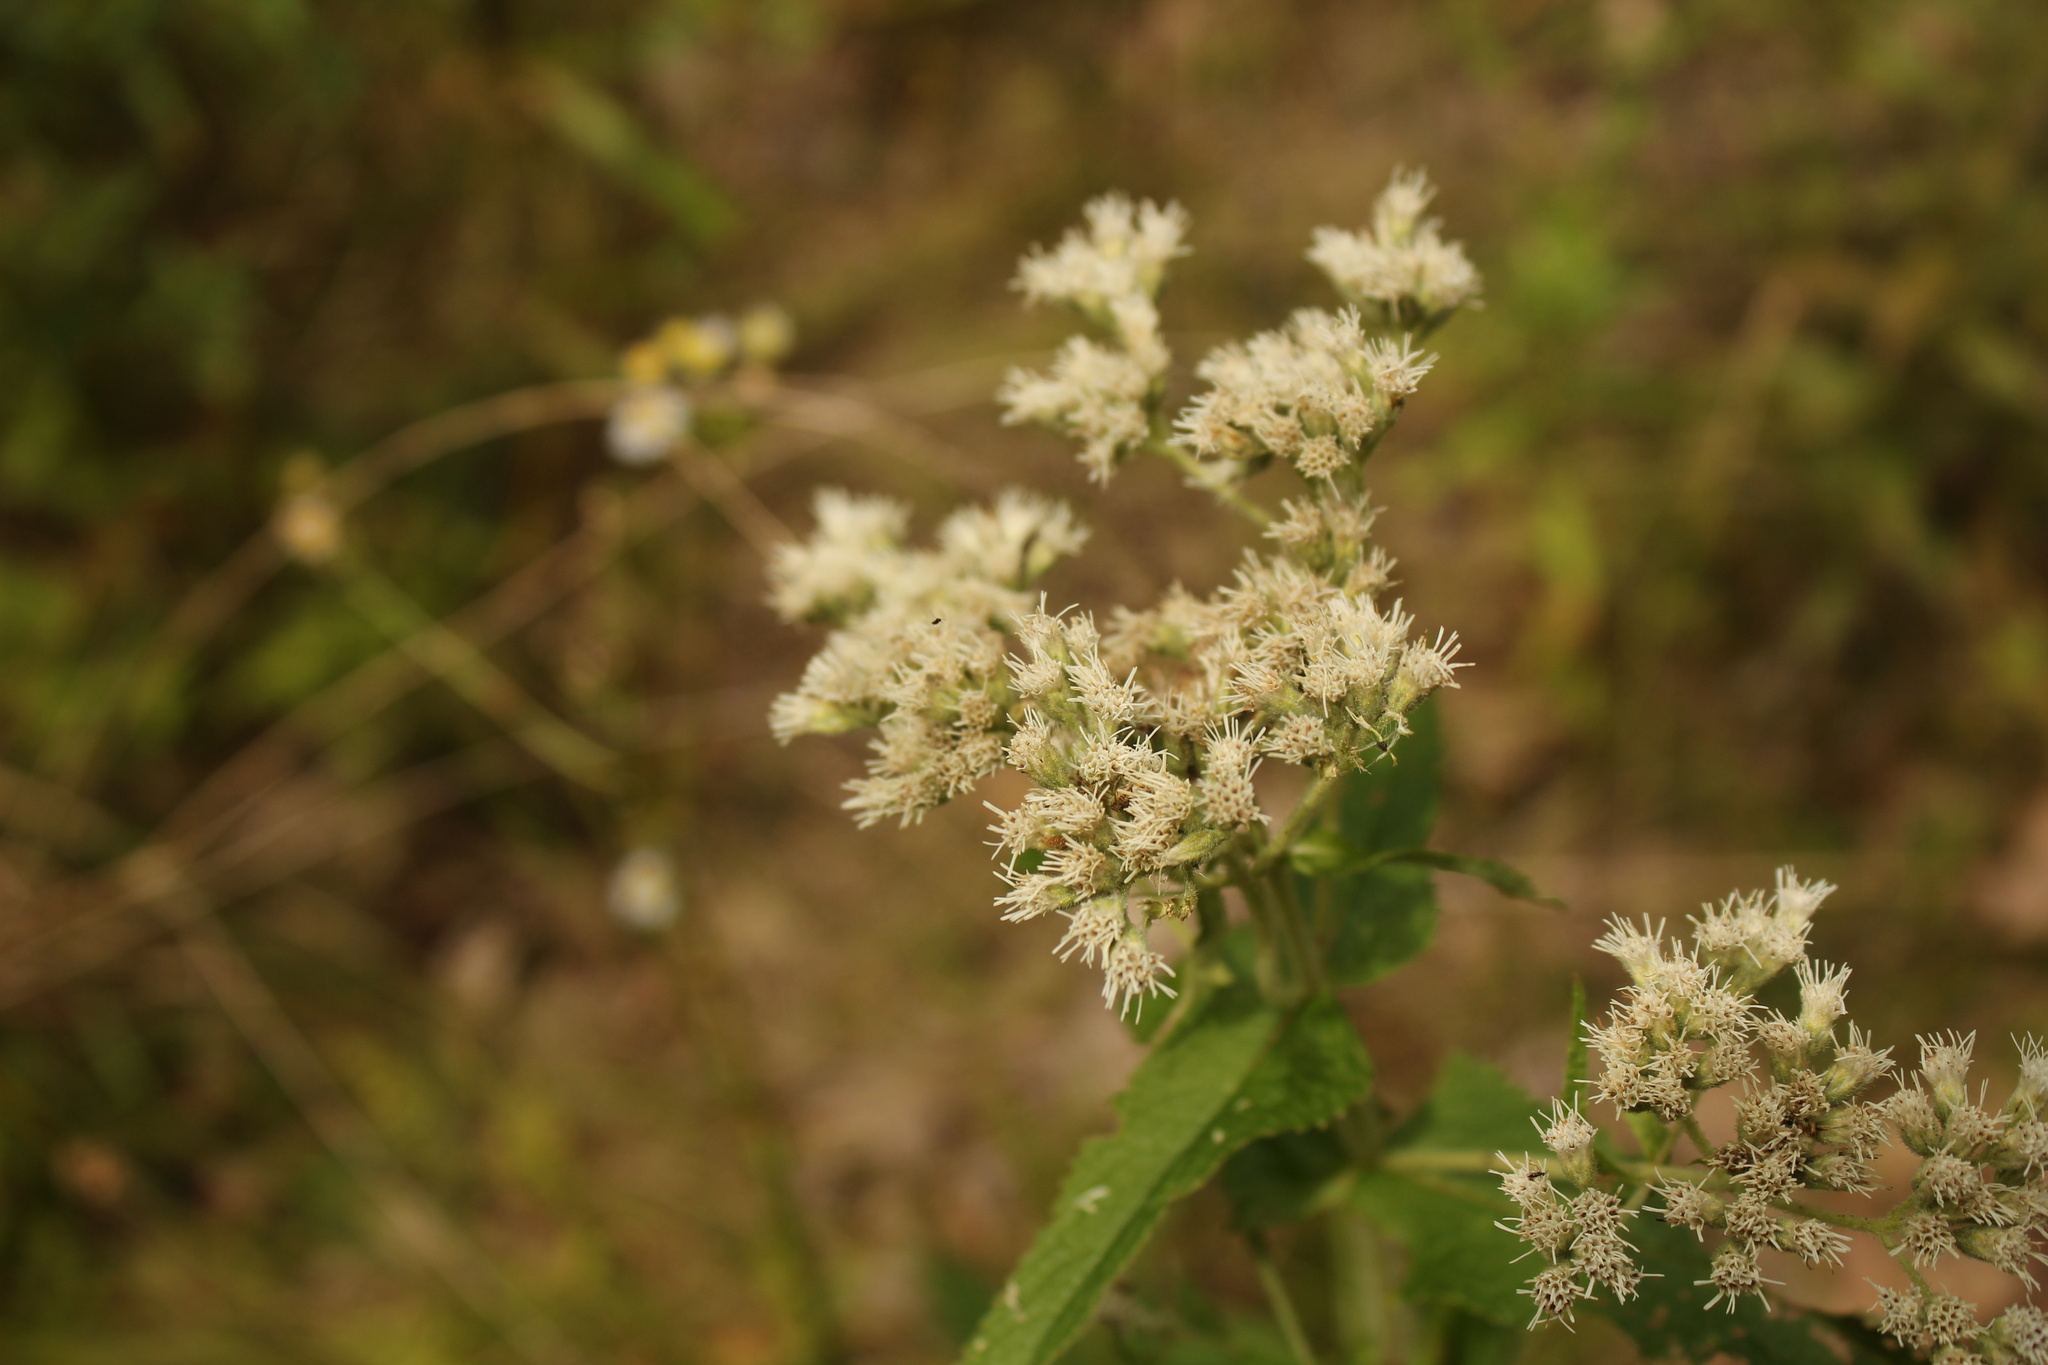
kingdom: Plantae
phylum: Tracheophyta
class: Magnoliopsida
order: Asterales
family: Asteraceae
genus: Eupatorium
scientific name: Eupatorium perfoliatum
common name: Boneset
